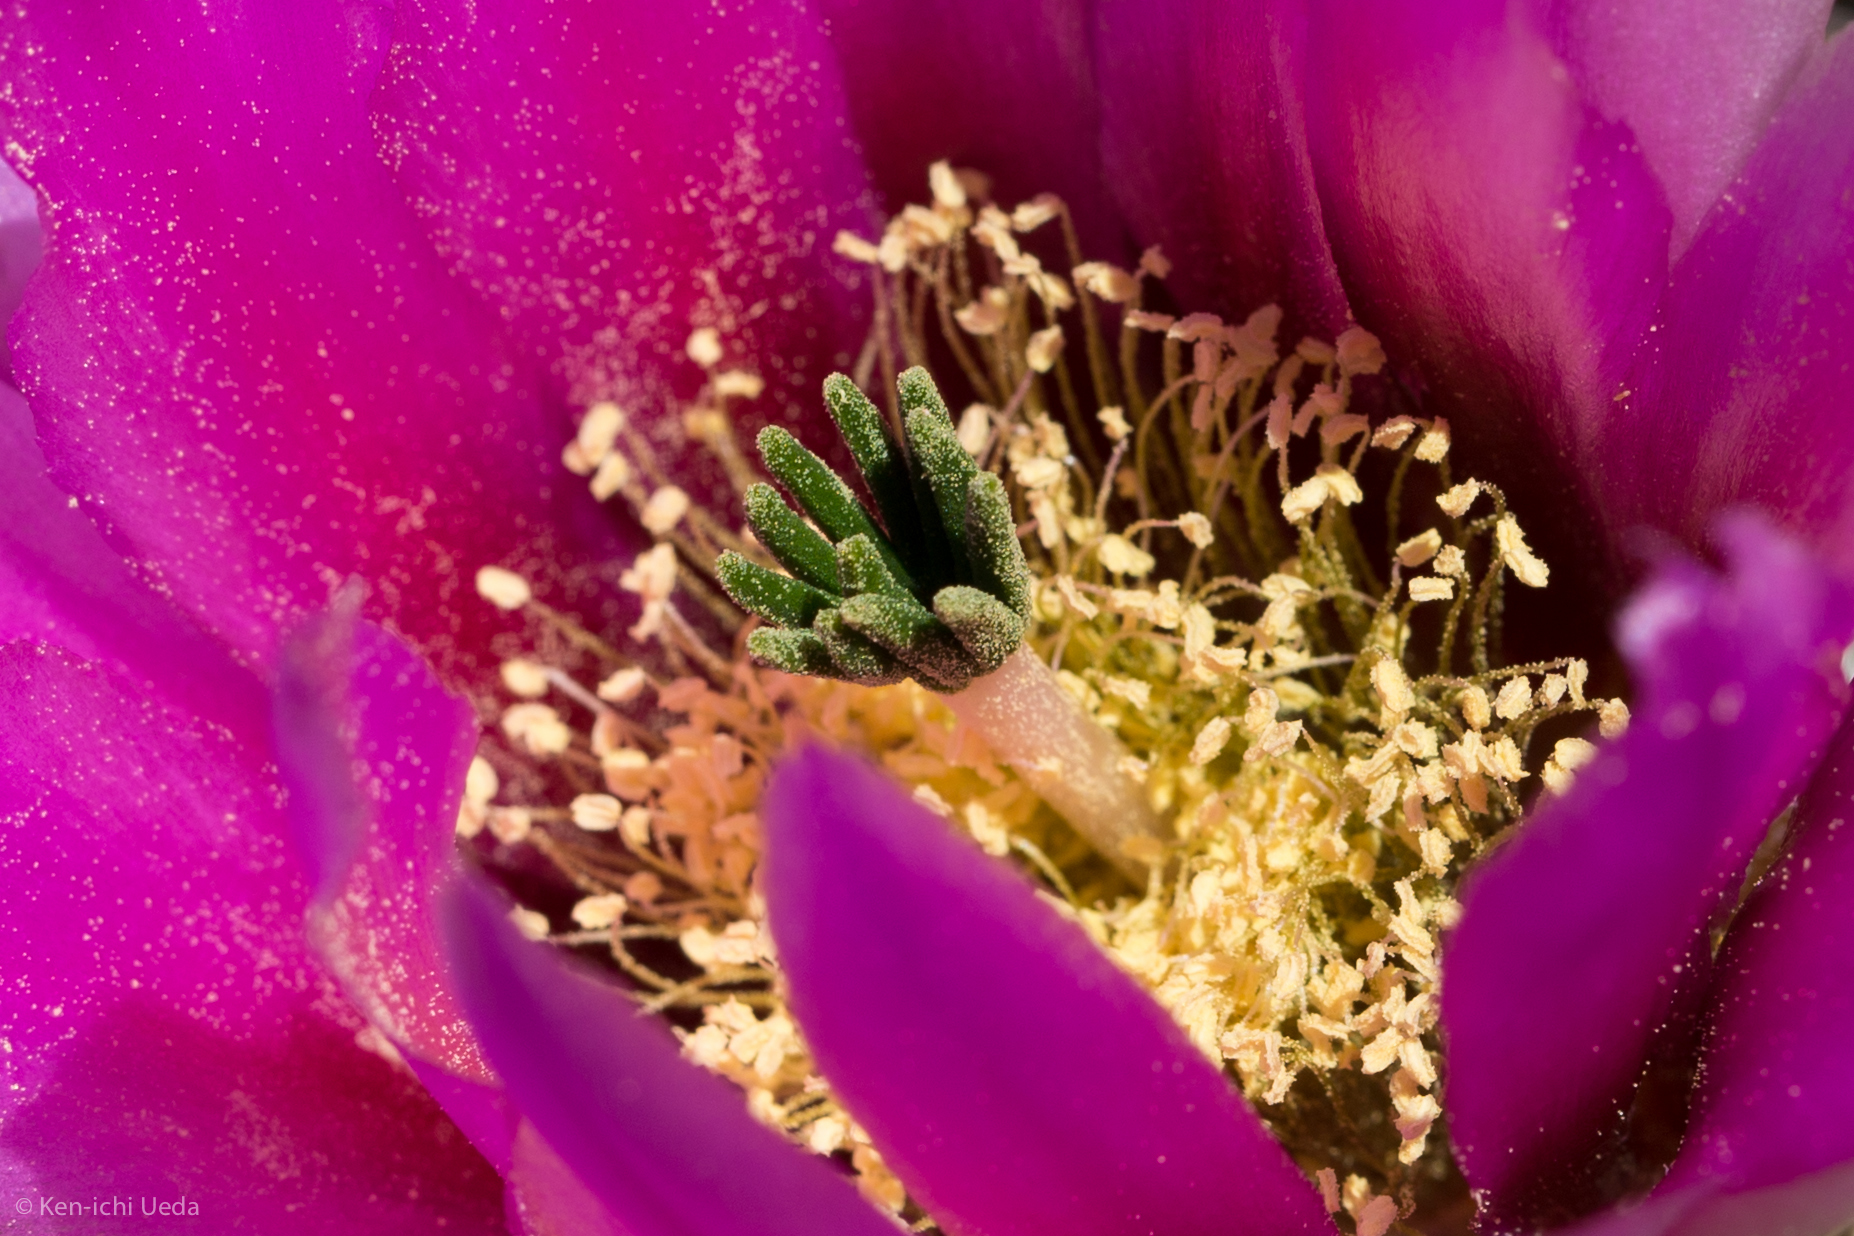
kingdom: Plantae
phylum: Tracheophyta
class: Magnoliopsida
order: Caryophyllales
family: Cactaceae
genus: Echinocereus
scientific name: Echinocereus engelmannii
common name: Engelmann's hedgehog cactus
